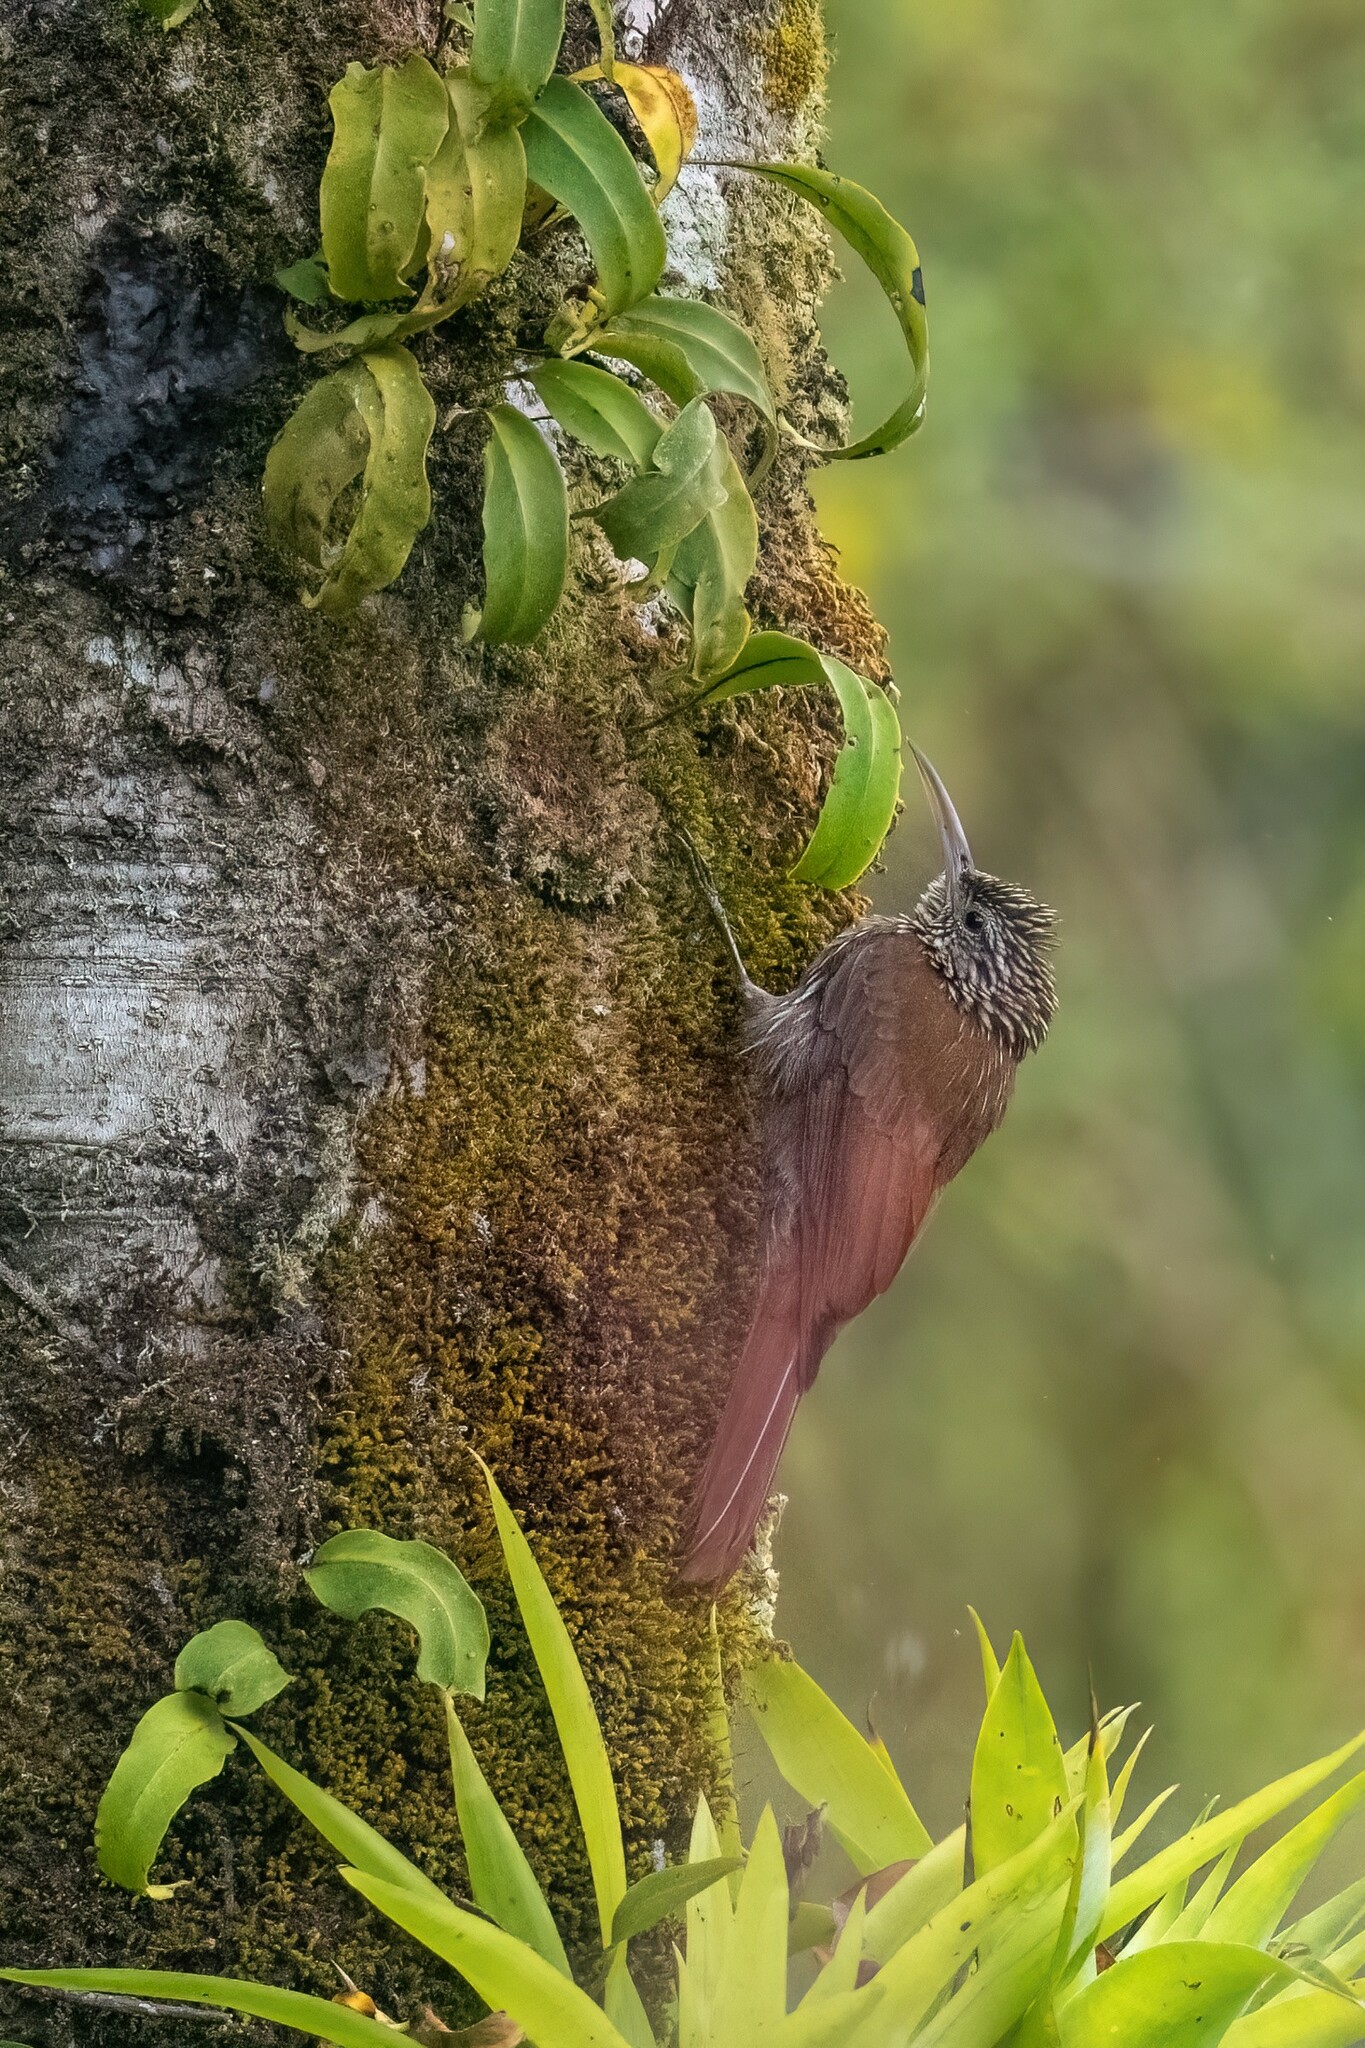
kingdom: Animalia
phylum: Chordata
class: Aves
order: Passeriformes
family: Furnariidae
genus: Lepidocolaptes
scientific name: Lepidocolaptes souleyetii
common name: Streak-headed woodcreeper
